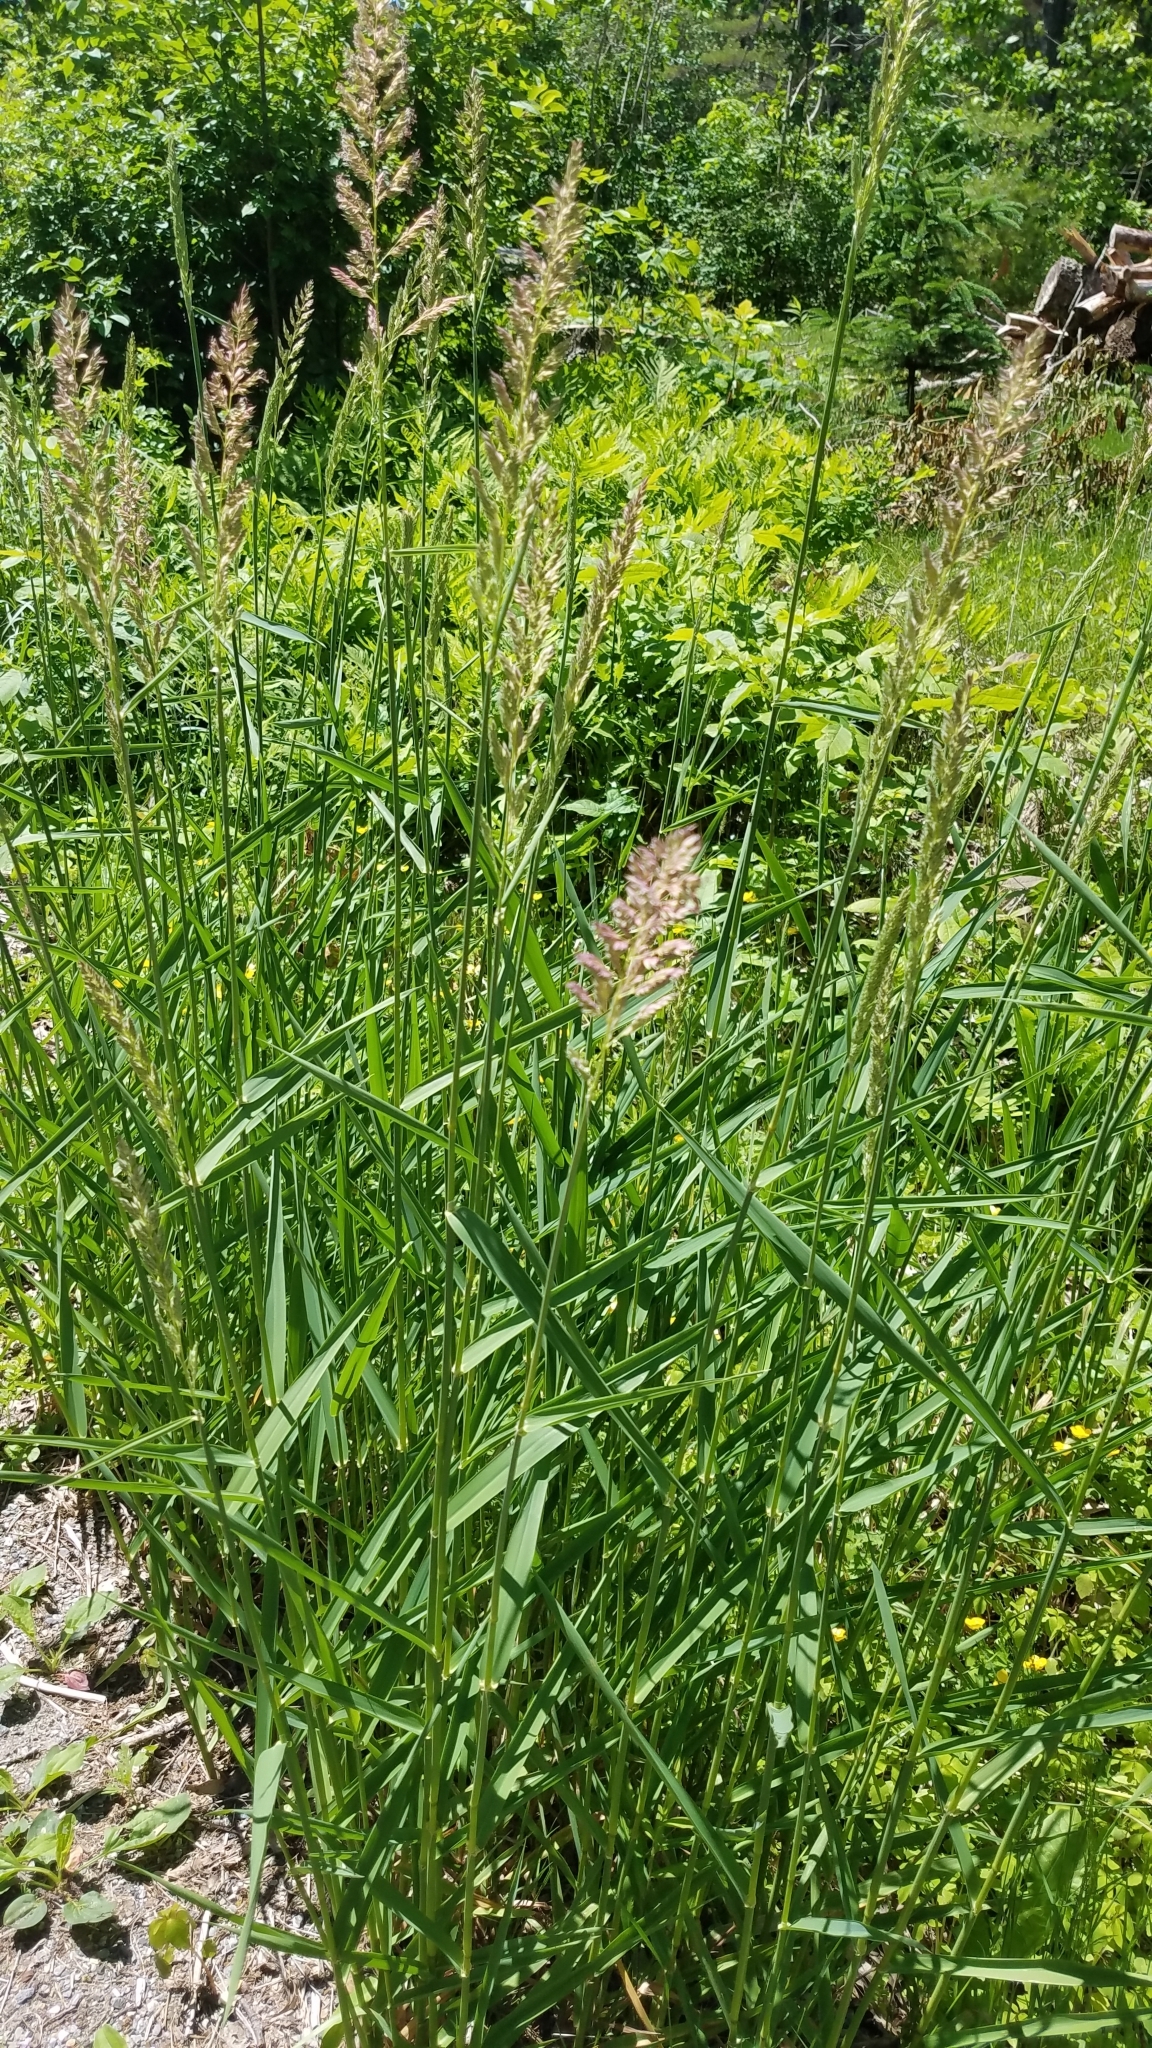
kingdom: Plantae
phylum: Tracheophyta
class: Liliopsida
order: Poales
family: Poaceae
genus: Phalaris
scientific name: Phalaris arundinacea
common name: Reed canary-grass
